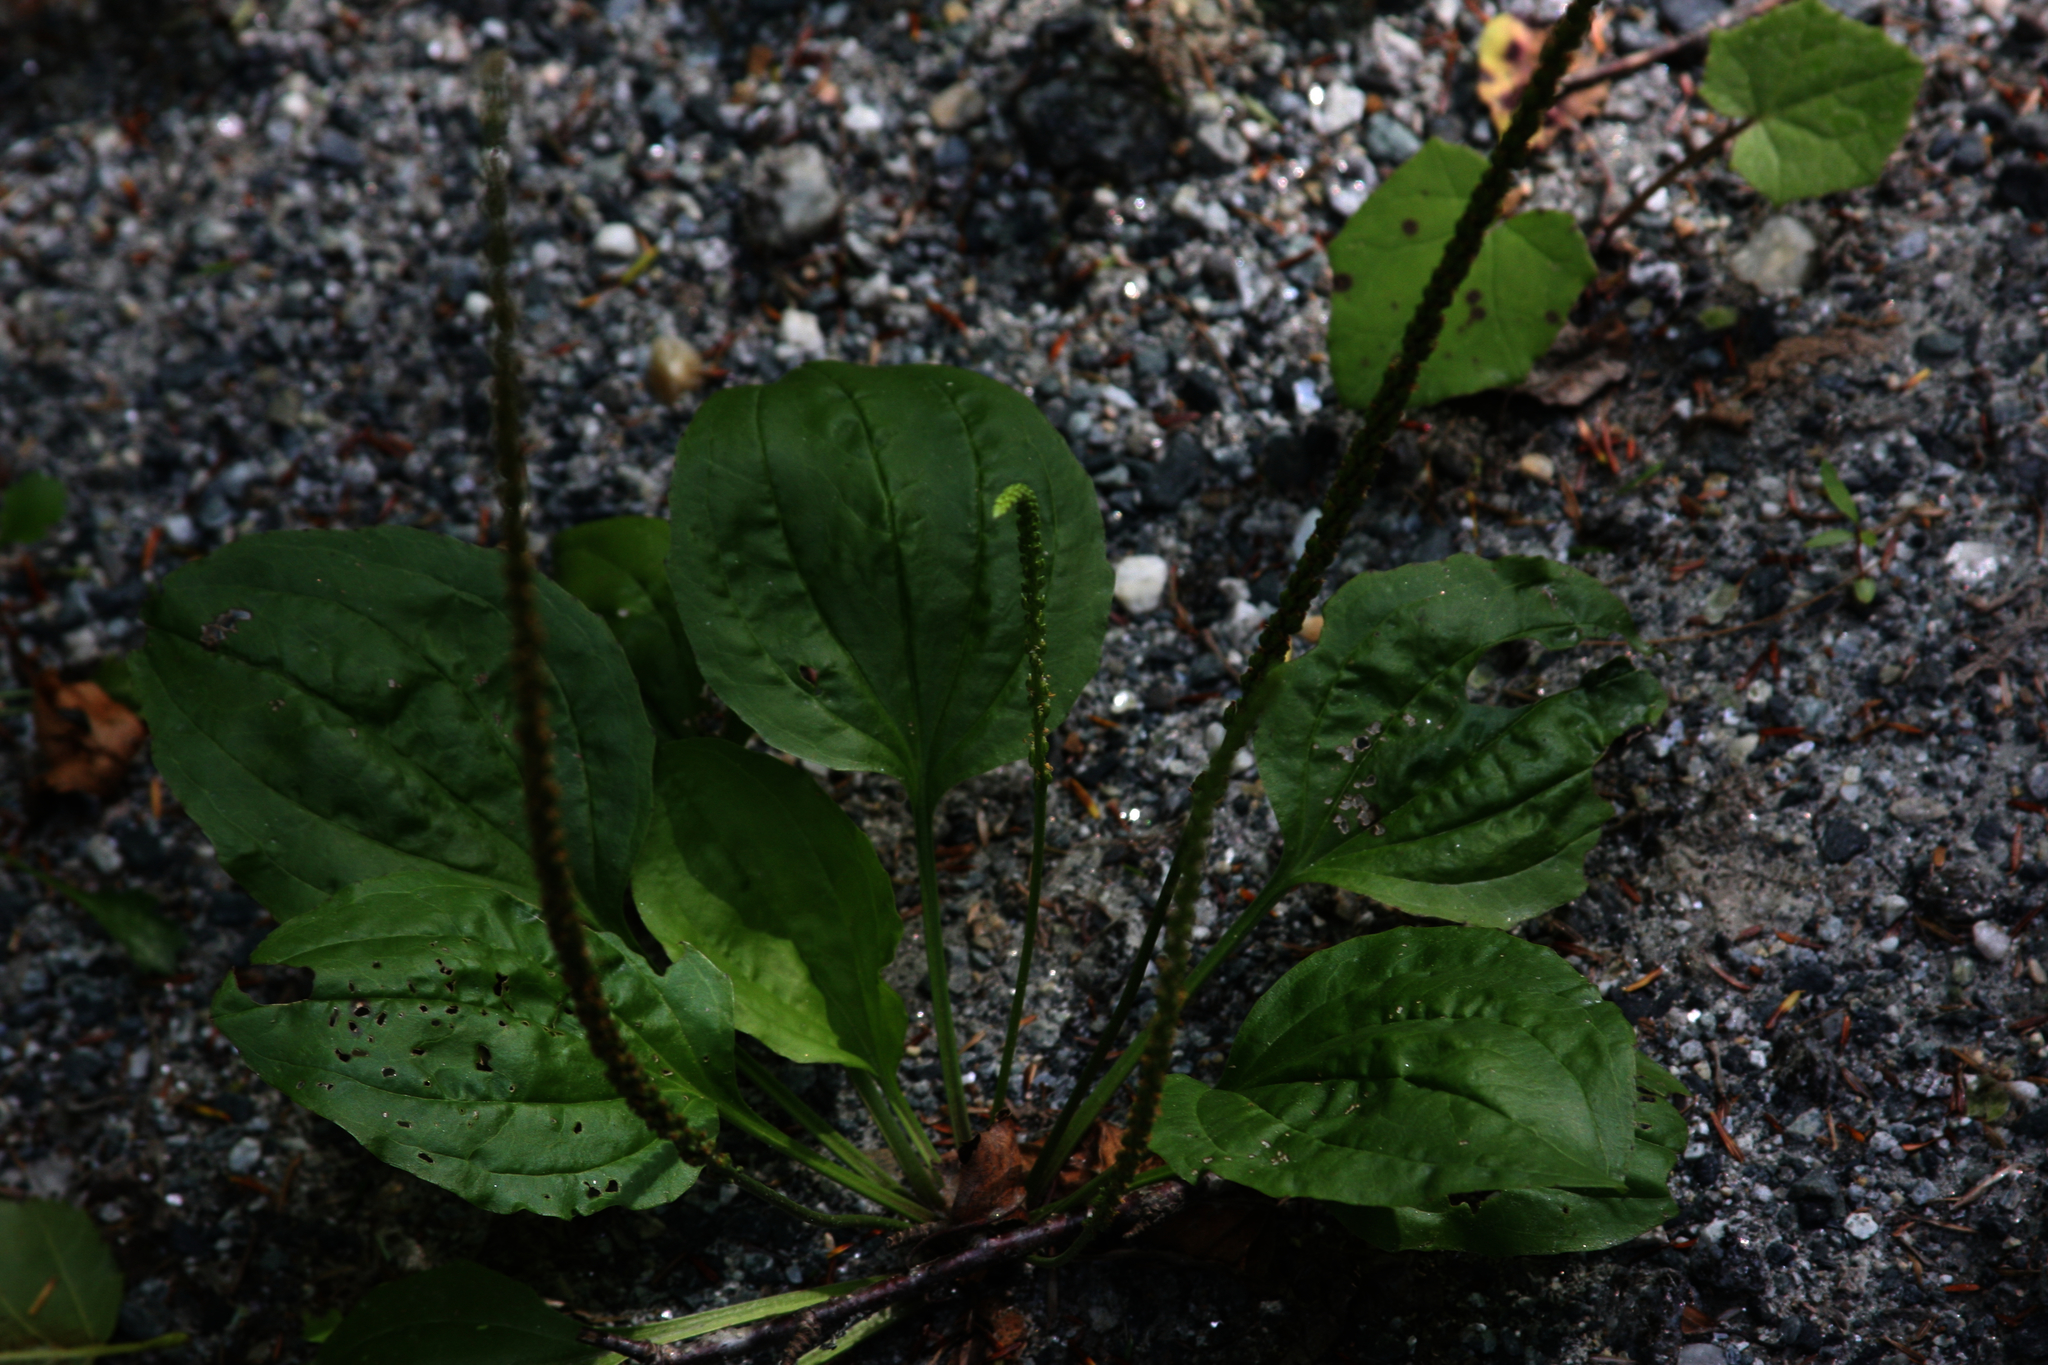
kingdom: Plantae
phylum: Tracheophyta
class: Magnoliopsida
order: Lamiales
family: Plantaginaceae
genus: Plantago
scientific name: Plantago major
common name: Common plantain
